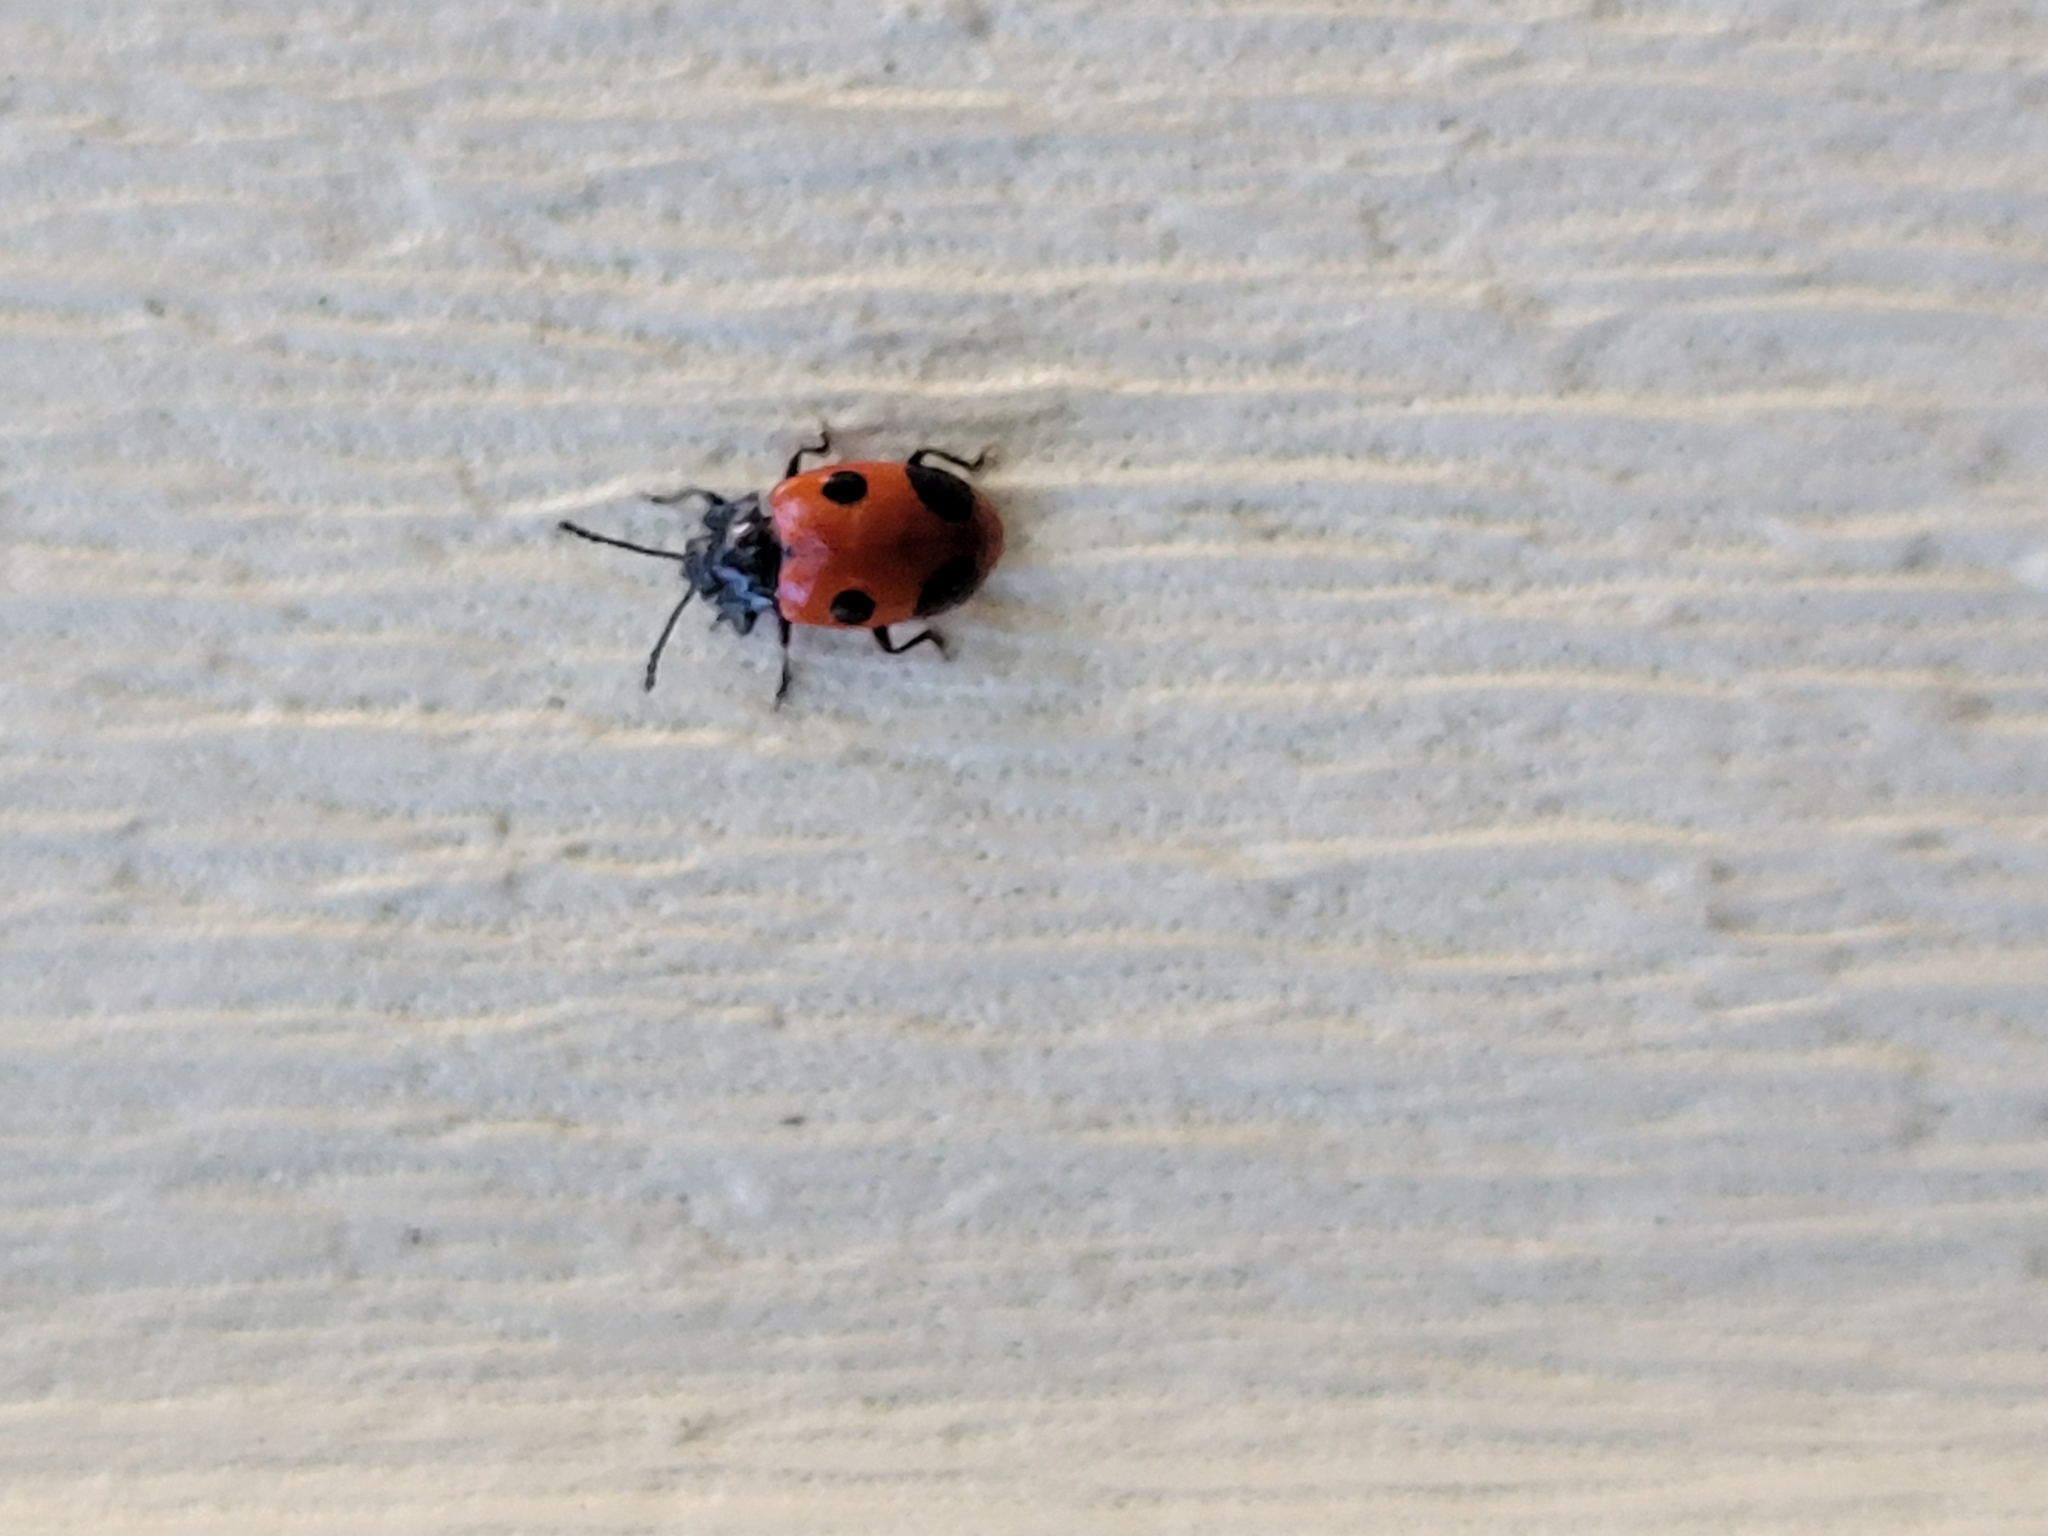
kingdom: Animalia
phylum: Arthropoda
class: Insecta
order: Coleoptera
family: Endomychidae
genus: Endomychus
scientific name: Endomychus biguttatus
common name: Handsome fungus beetle
